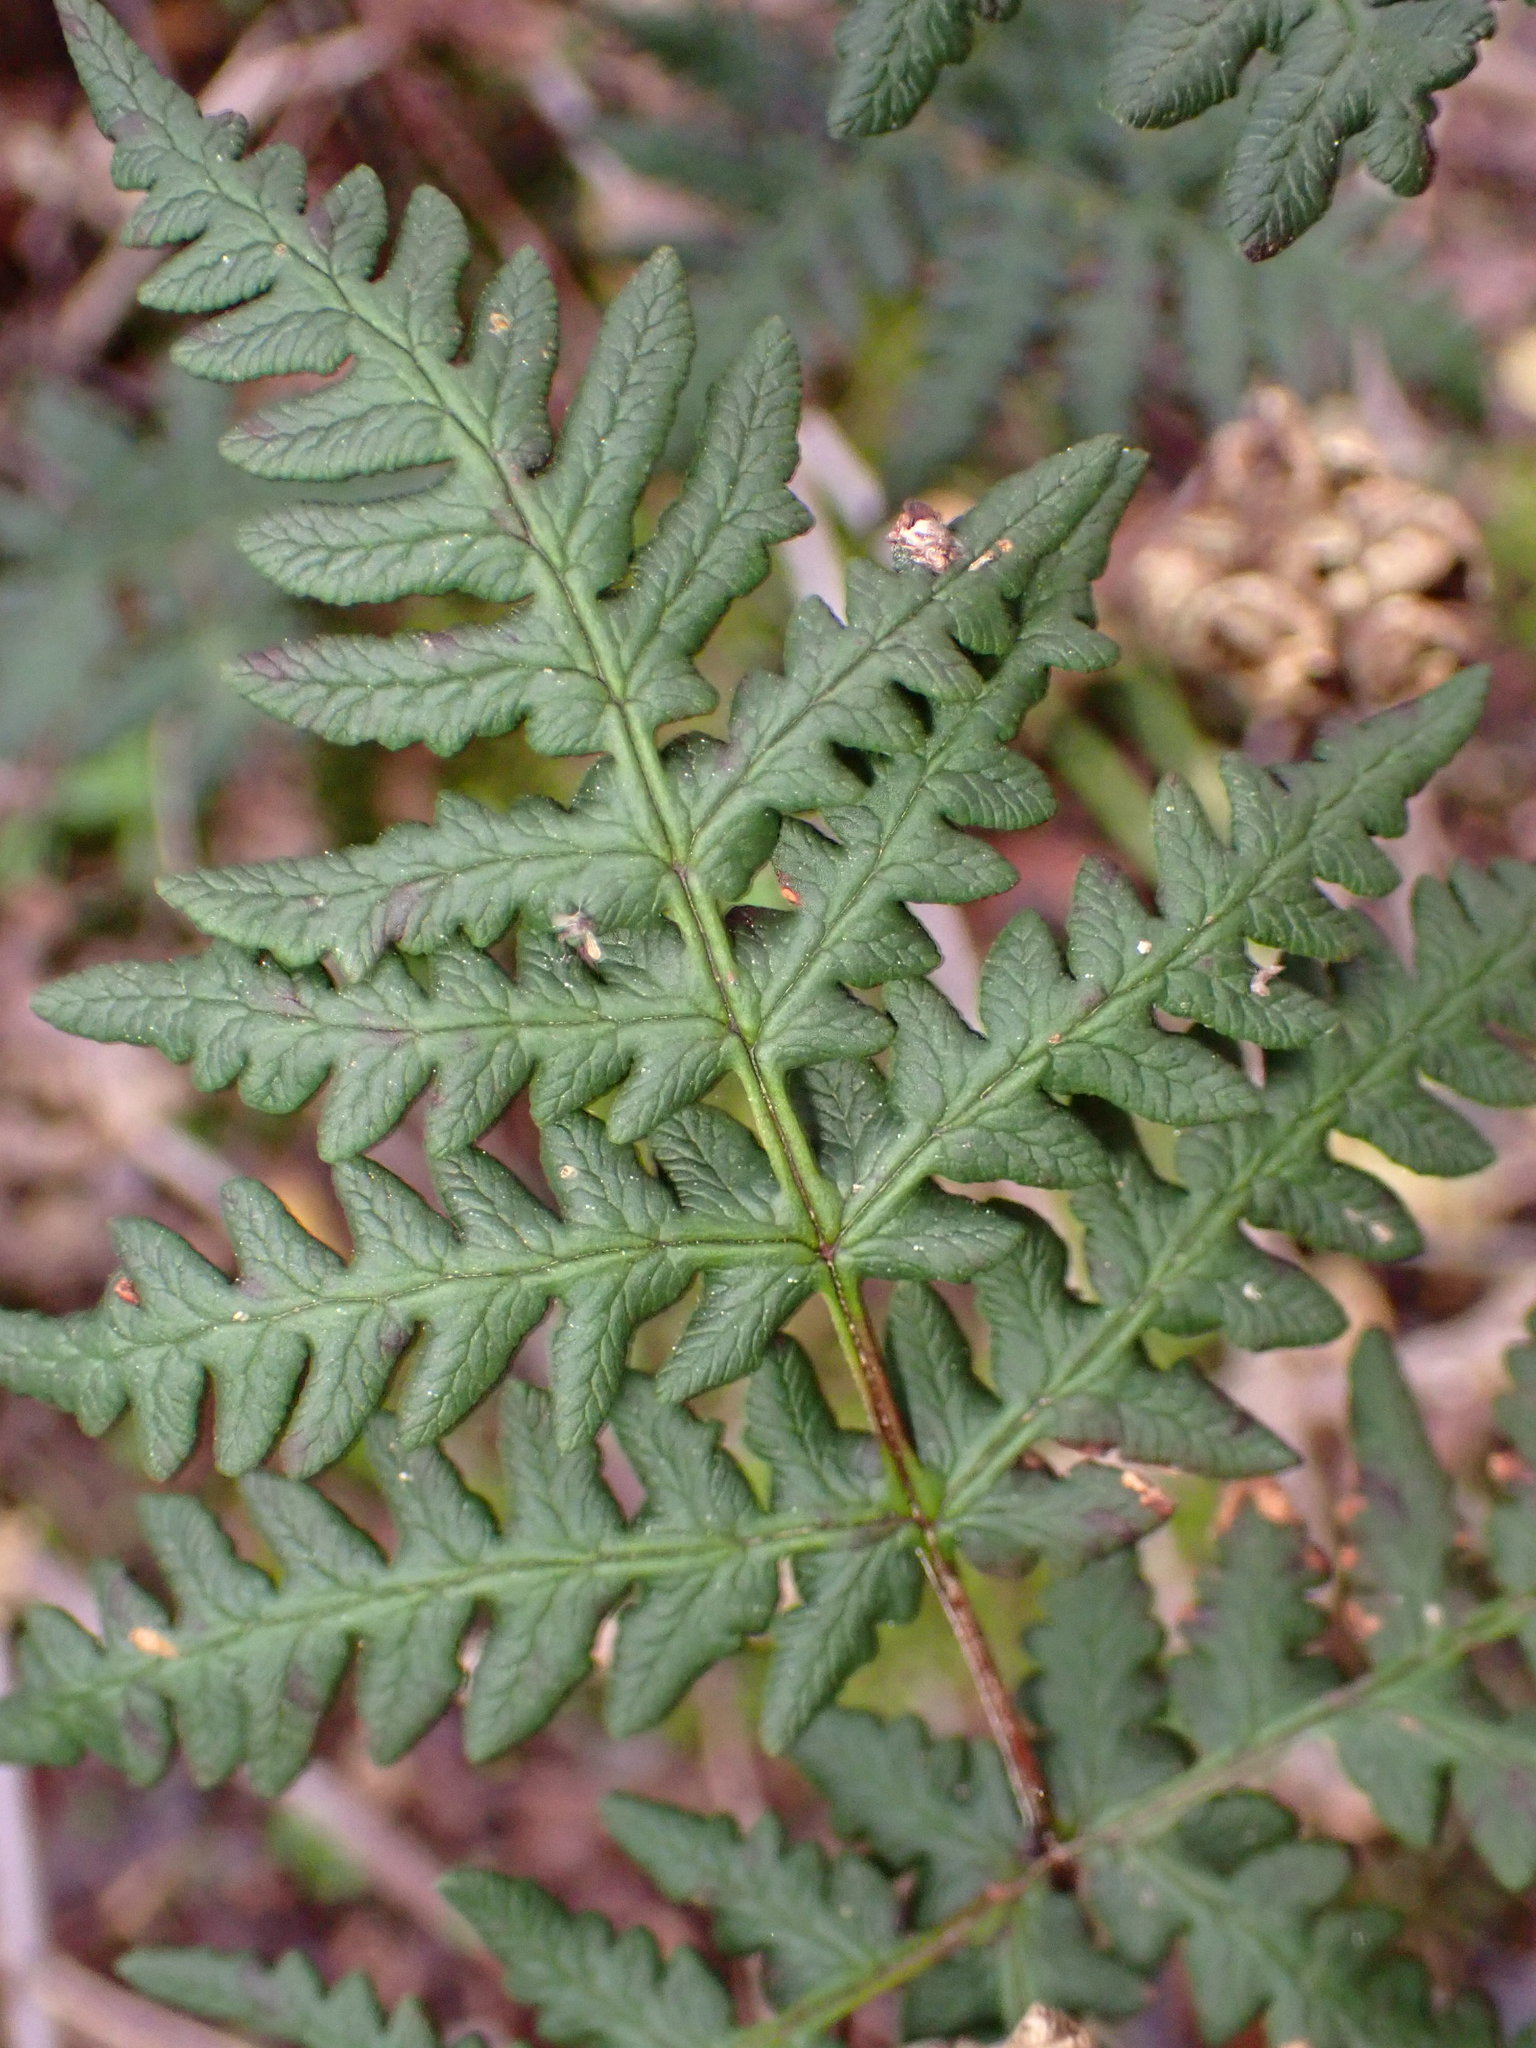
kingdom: Plantae
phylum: Tracheophyta
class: Polypodiopsida
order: Polypodiales
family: Pteridaceae
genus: Pentagramma
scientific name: Pentagramma triangularis
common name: Gold fern
